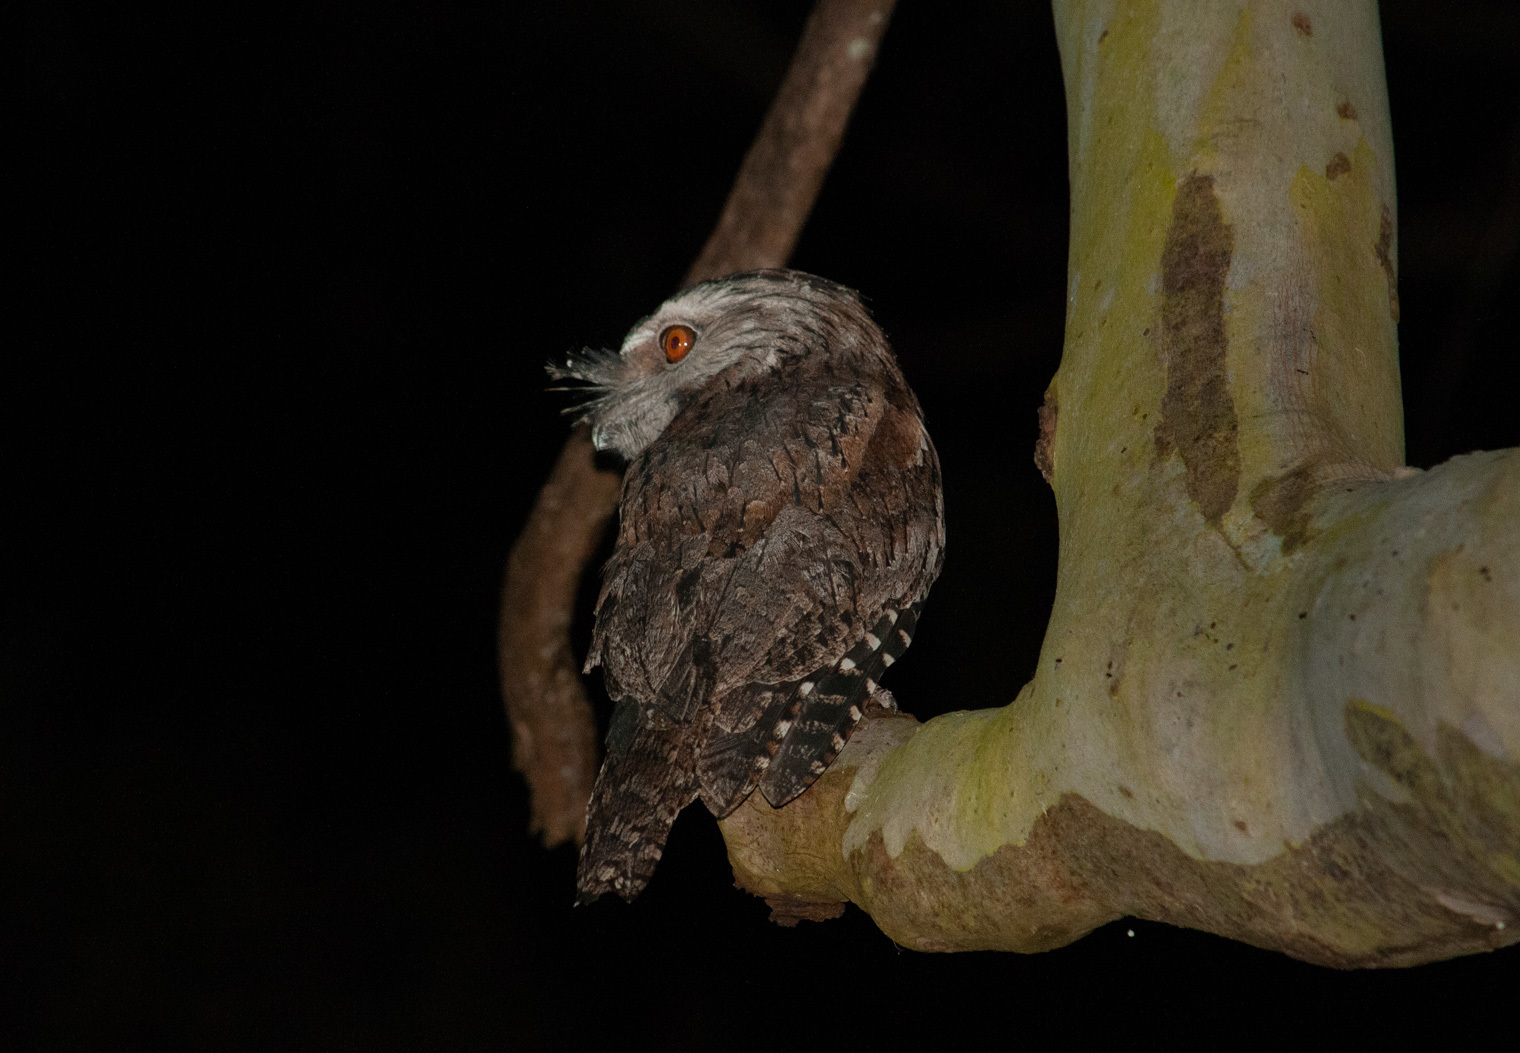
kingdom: Animalia
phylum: Chordata
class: Aves
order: Caprimulgiformes
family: Podargidae
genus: Podargus
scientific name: Podargus strigoides
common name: Tawny frogmouth
